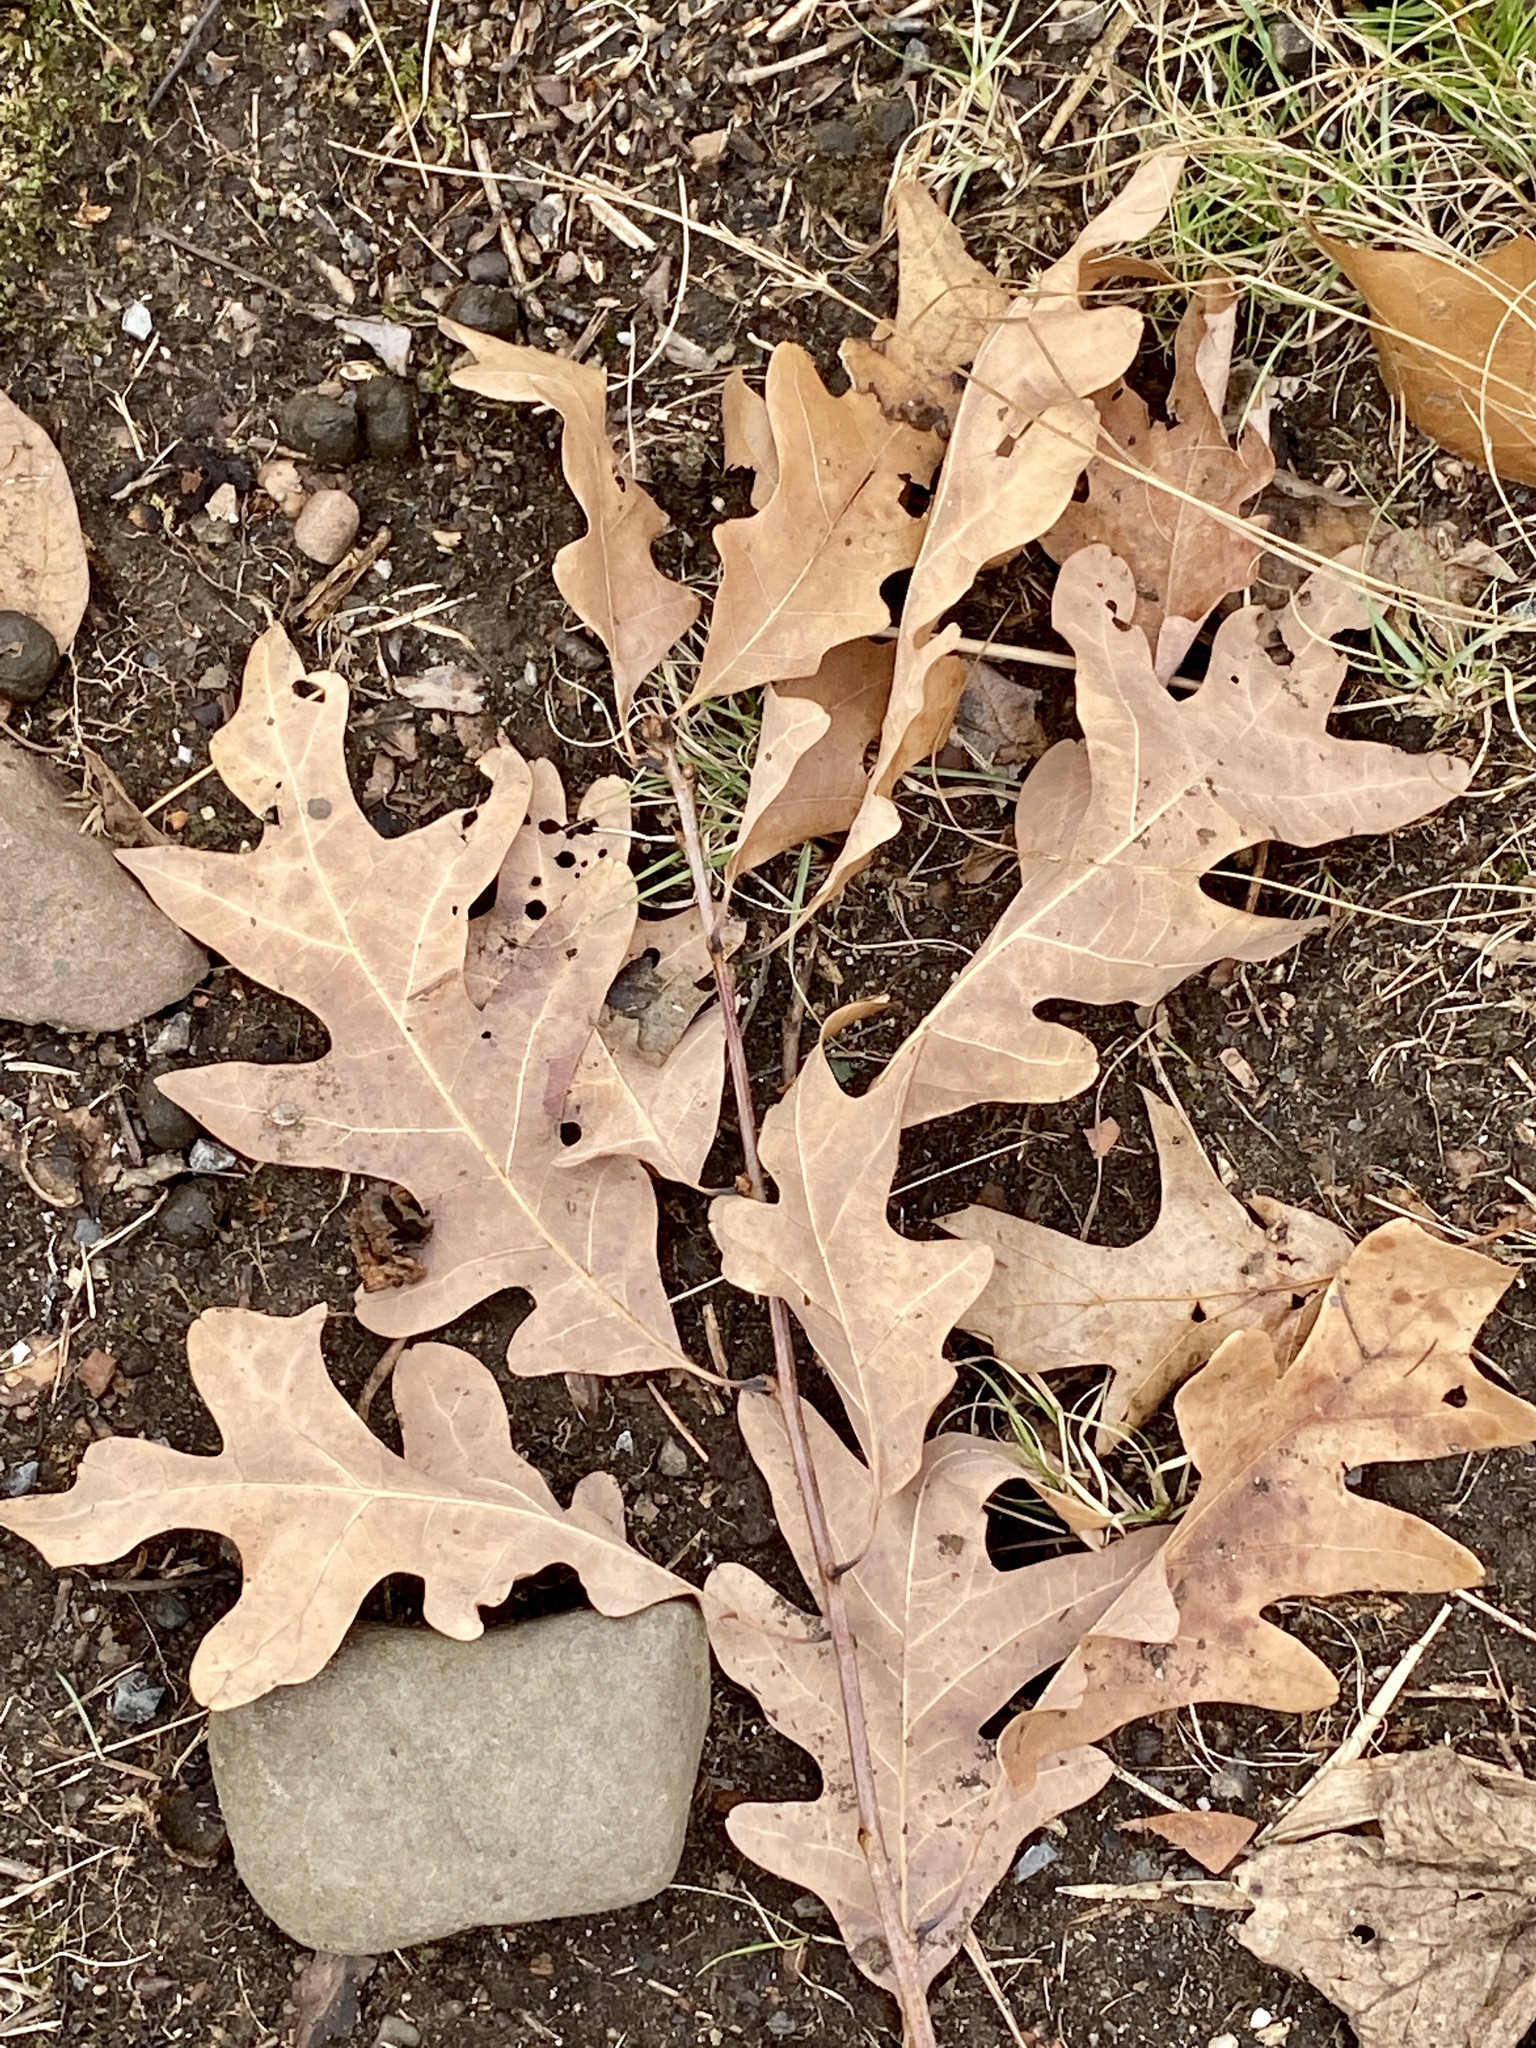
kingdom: Plantae
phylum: Tracheophyta
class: Magnoliopsida
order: Fagales
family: Fagaceae
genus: Quercus
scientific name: Quercus alba
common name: White oak
